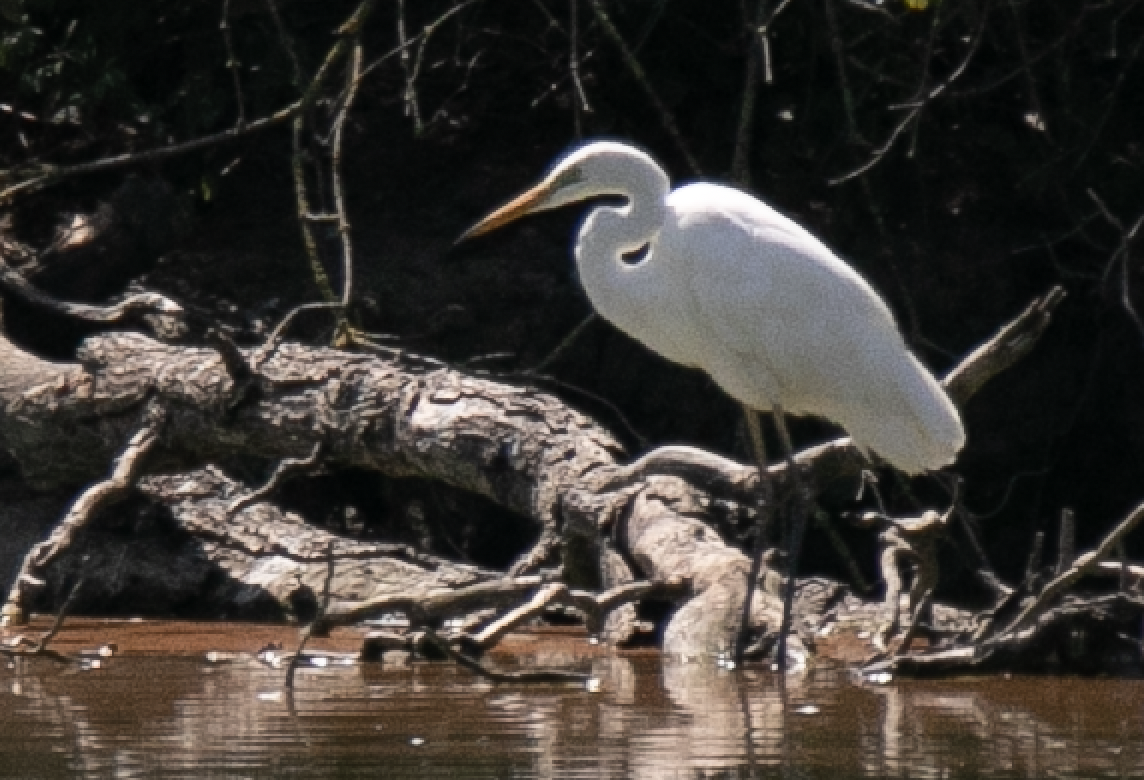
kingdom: Animalia
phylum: Chordata
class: Aves
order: Pelecaniformes
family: Ardeidae
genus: Ardea
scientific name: Ardea alba
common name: Great egret
